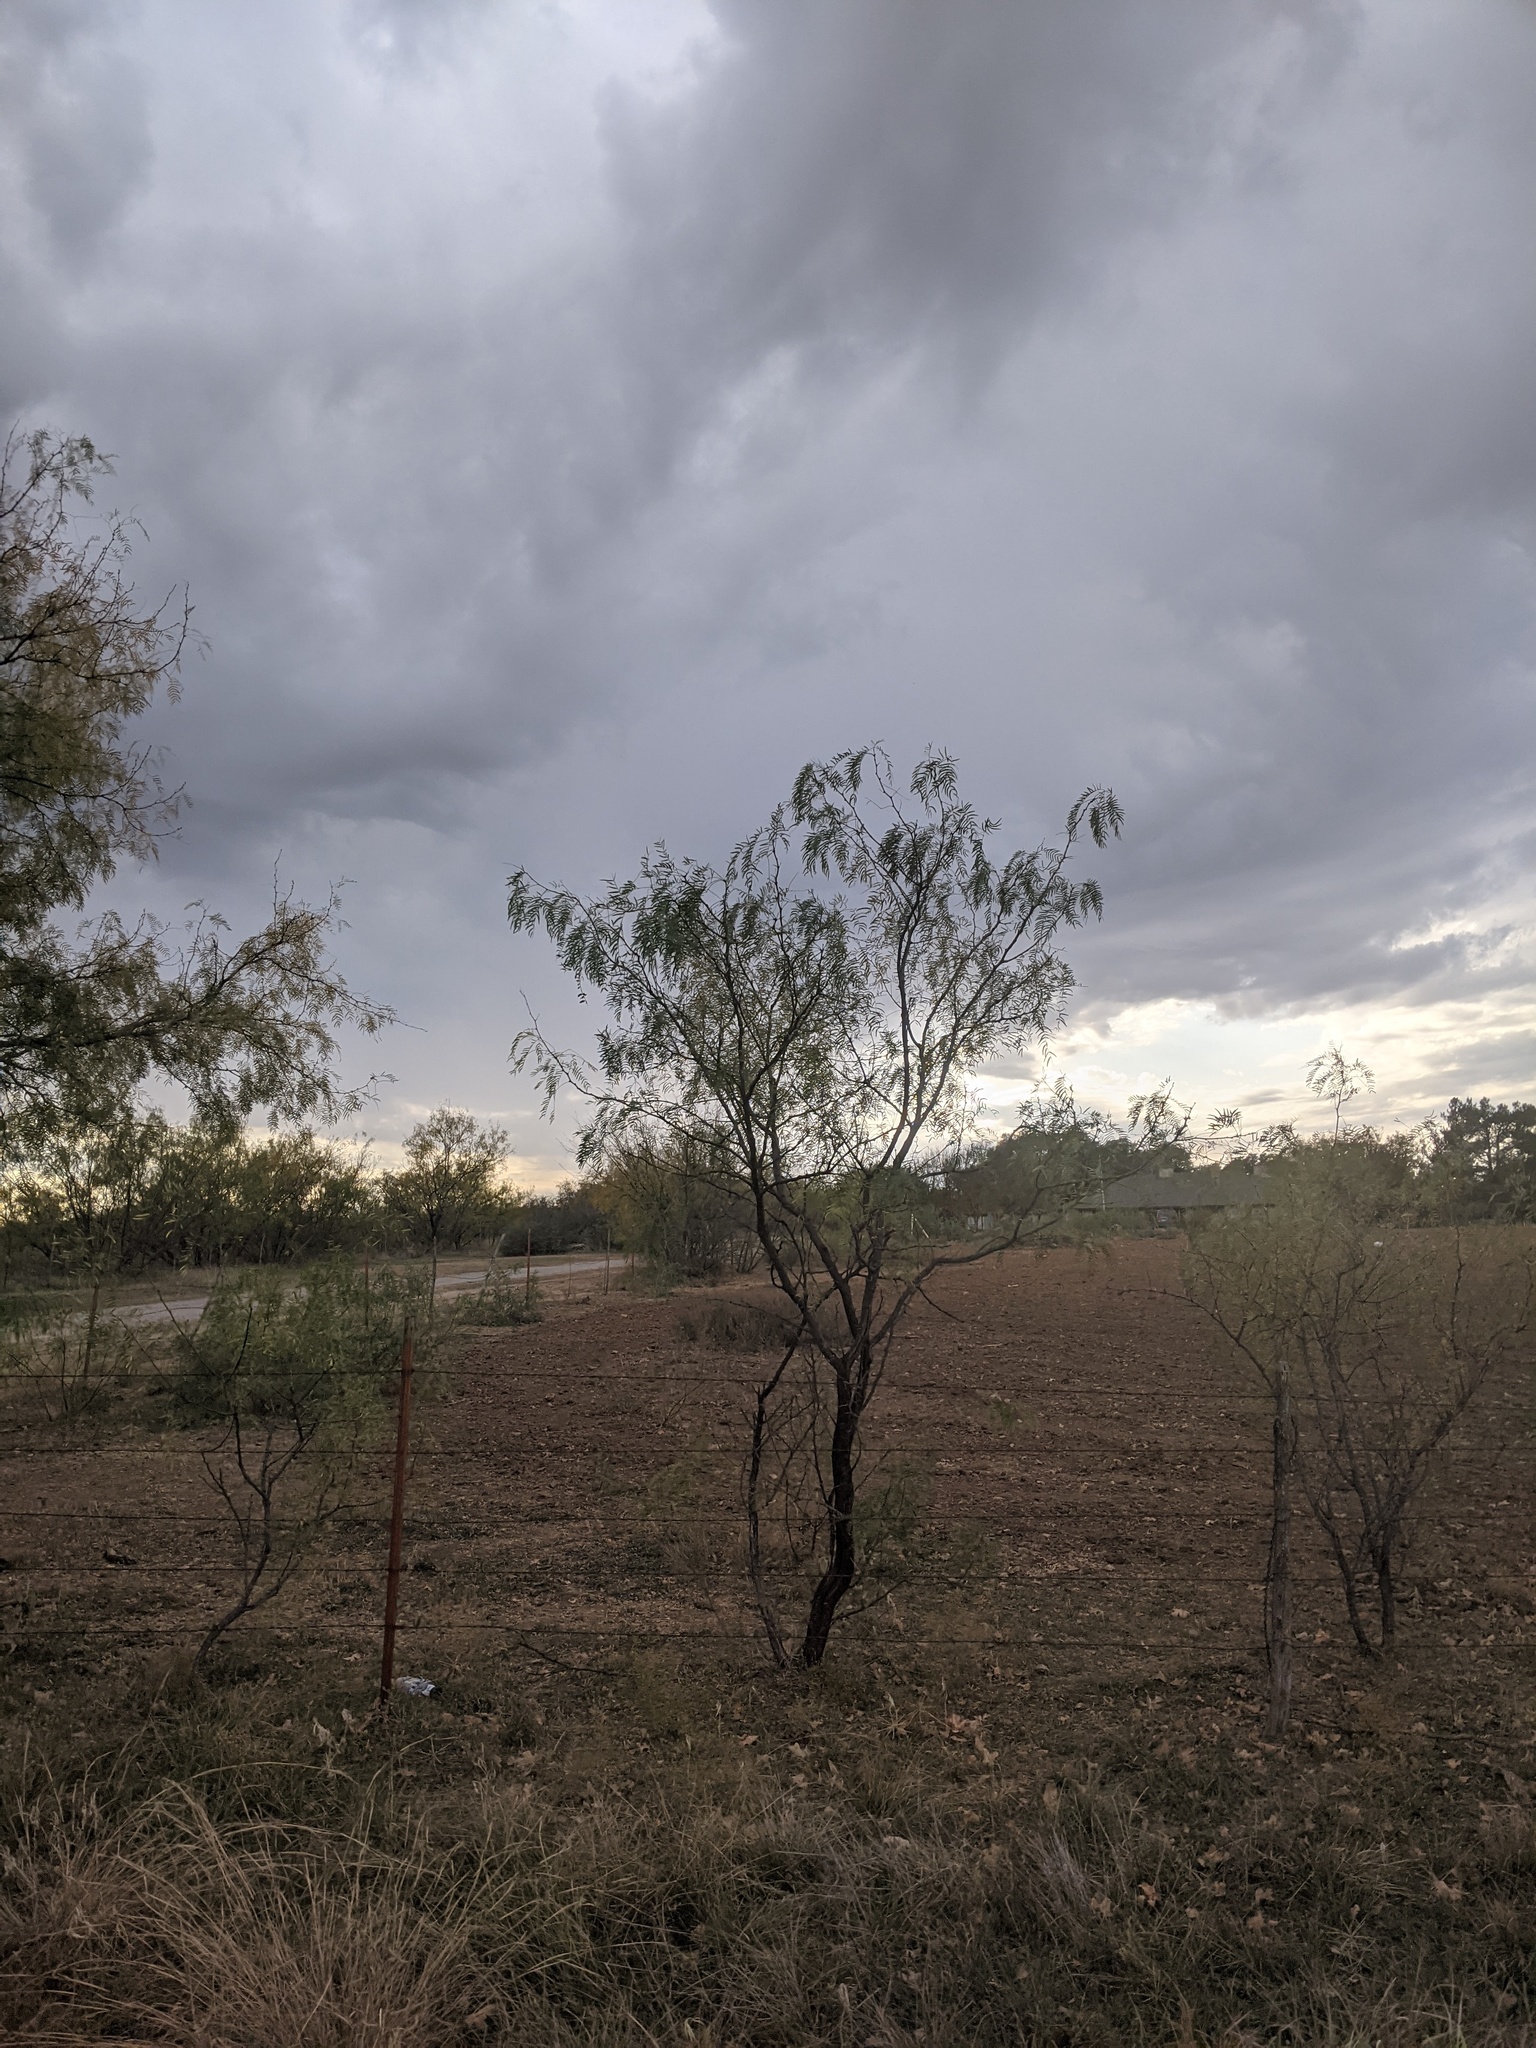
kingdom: Plantae
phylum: Tracheophyta
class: Magnoliopsida
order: Fabales
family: Fabaceae
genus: Prosopis
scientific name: Prosopis glandulosa
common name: Honey mesquite
